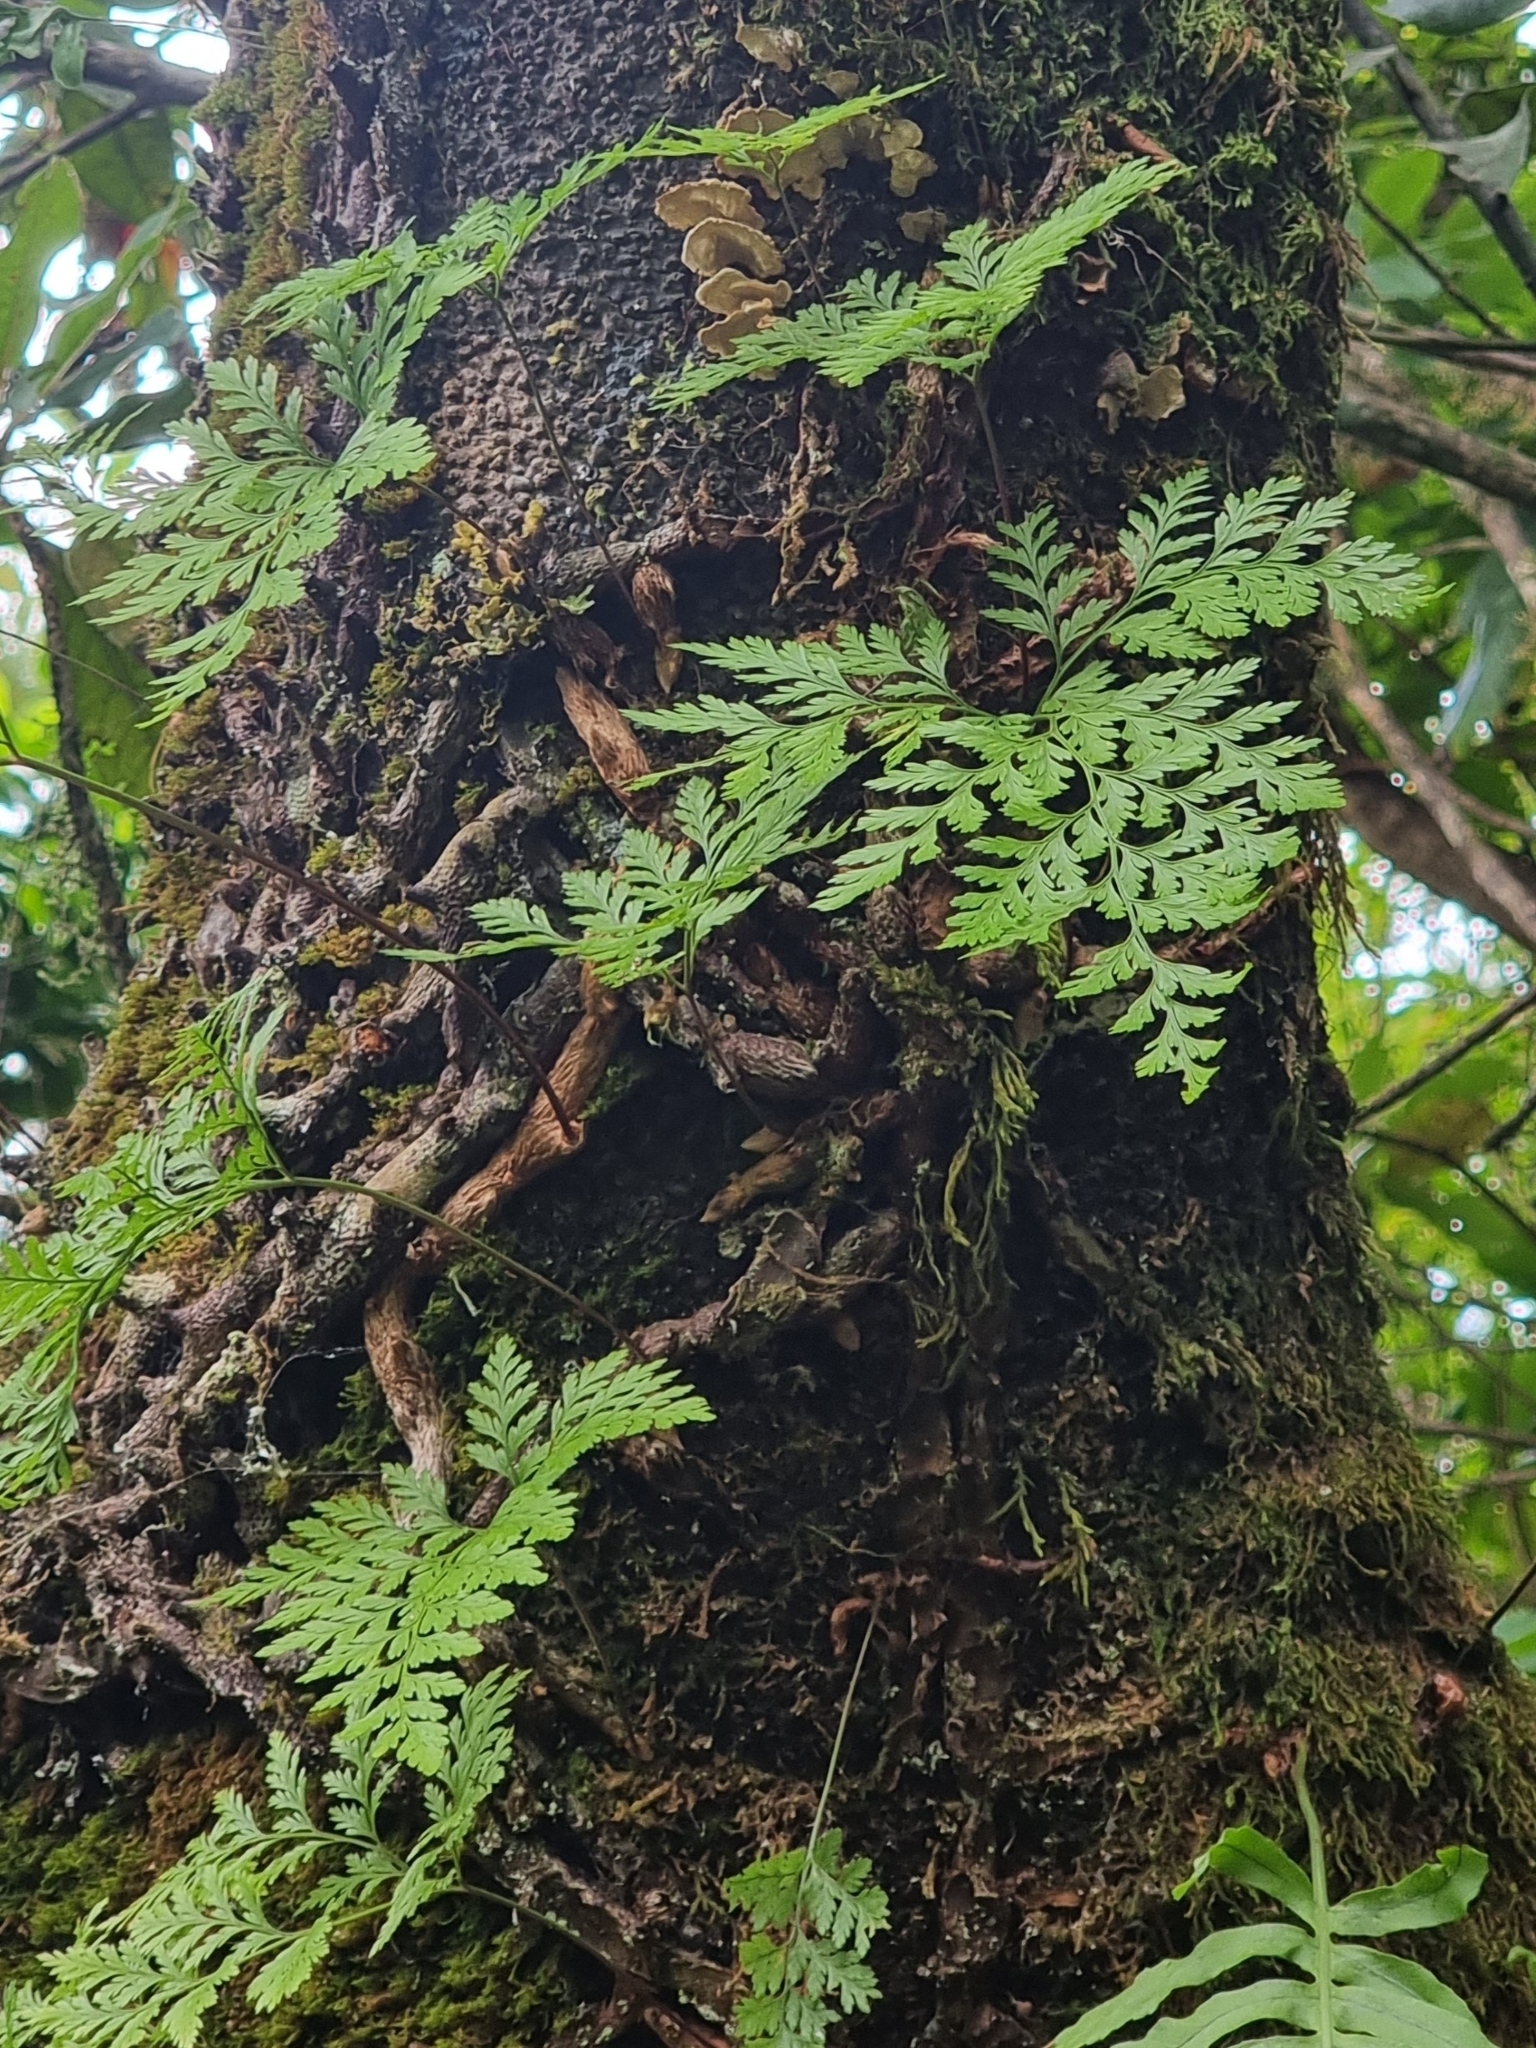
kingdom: Plantae
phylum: Tracheophyta
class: Polypodiopsida
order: Polypodiales
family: Davalliaceae
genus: Davallia
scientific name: Davallia canariensis
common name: Hare's-foot fern
